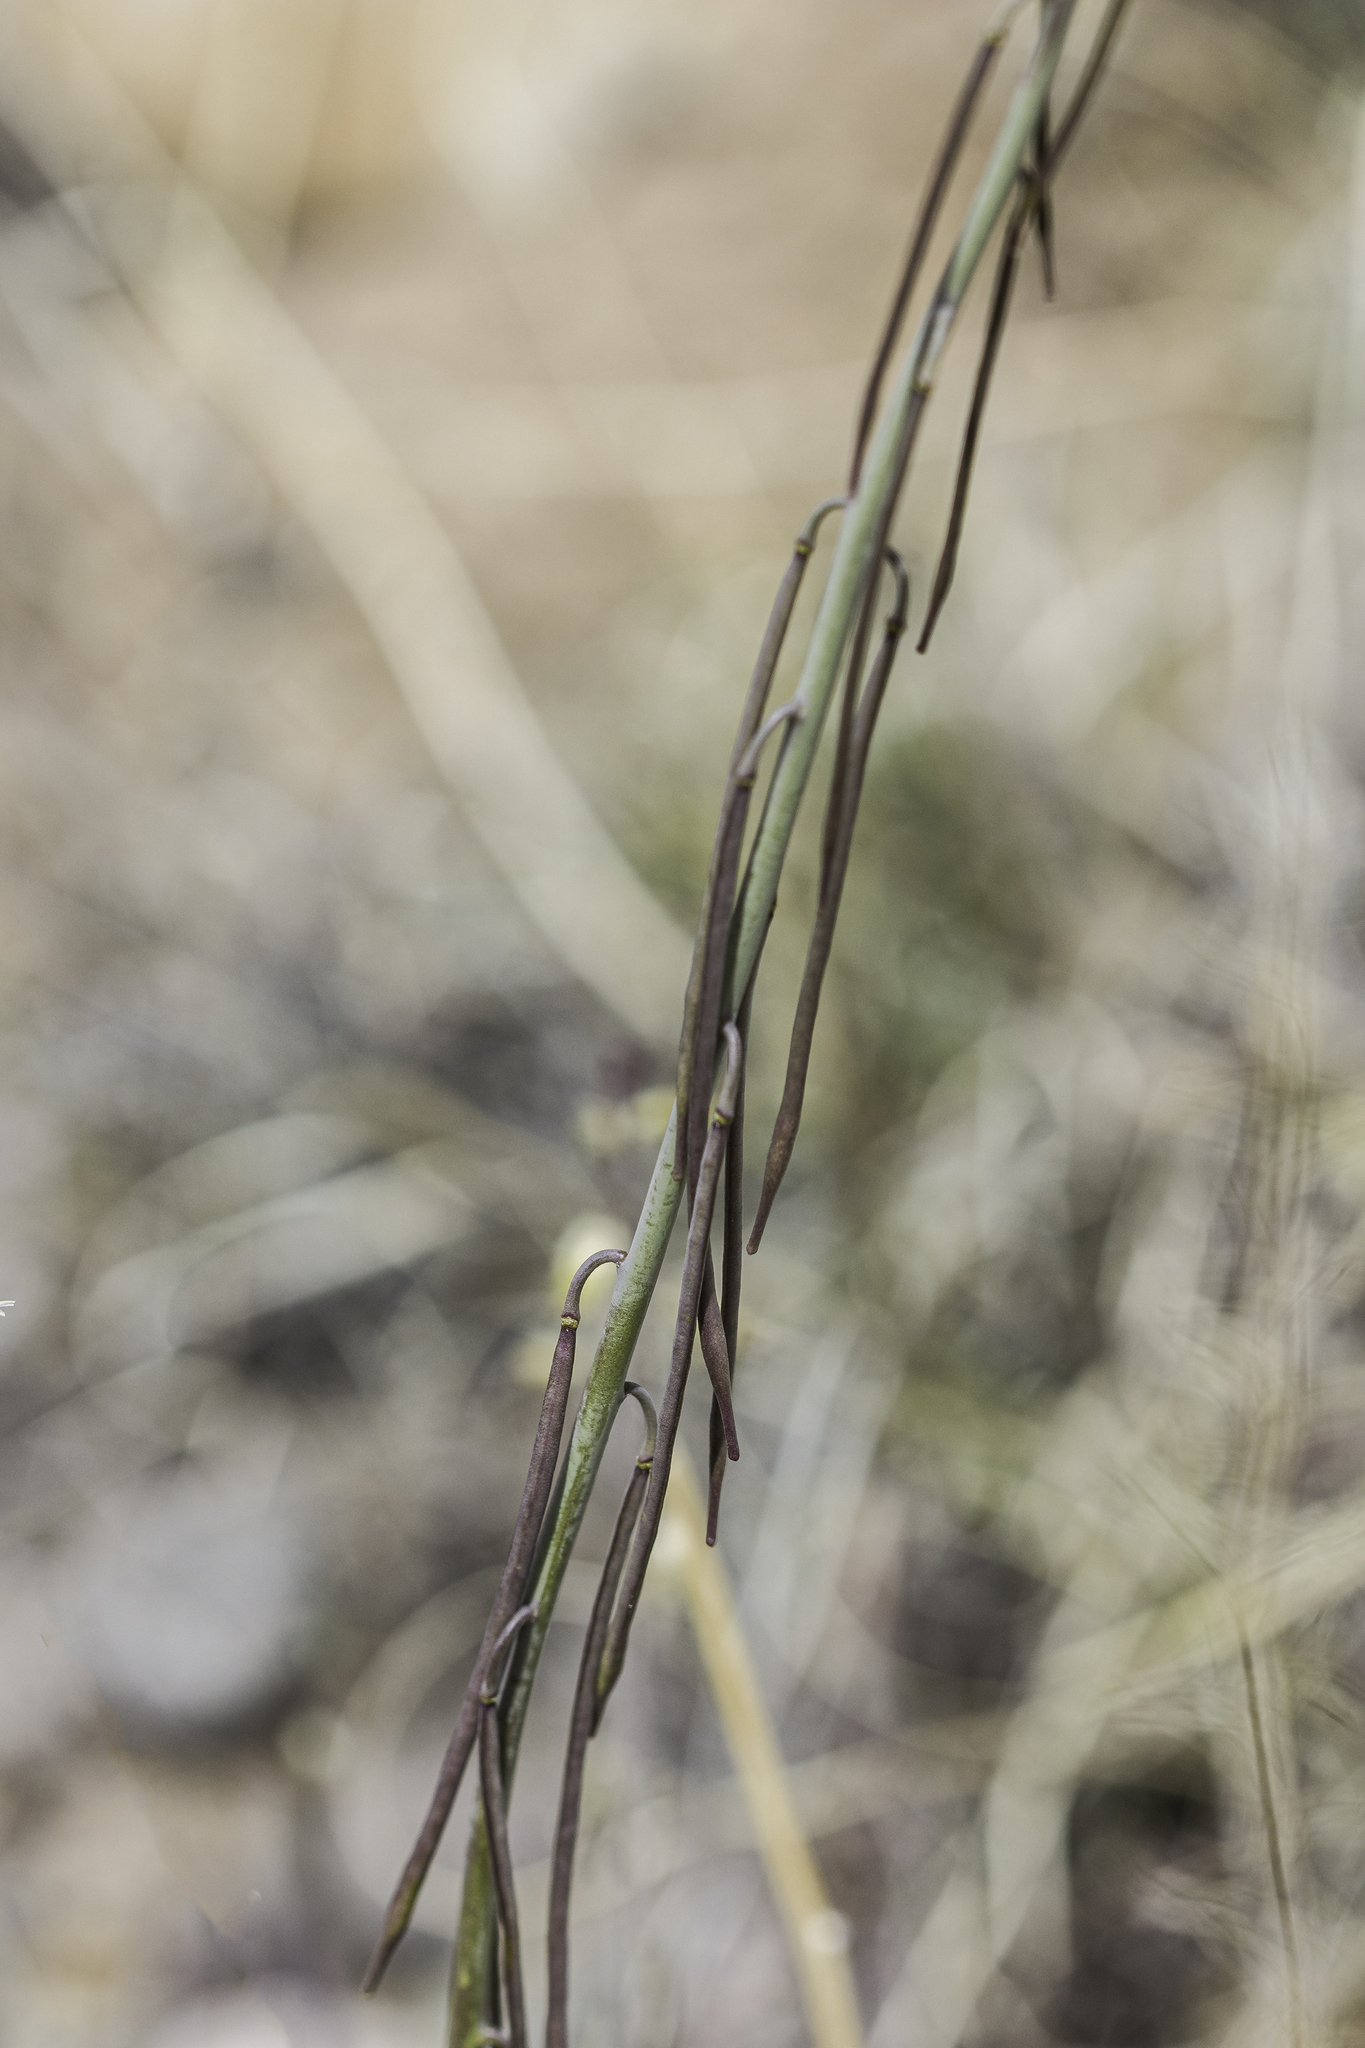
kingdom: Plantae
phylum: Tracheophyta
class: Magnoliopsida
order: Brassicales
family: Brassicaceae
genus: Streptanthus
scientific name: Streptanthus longirostris
